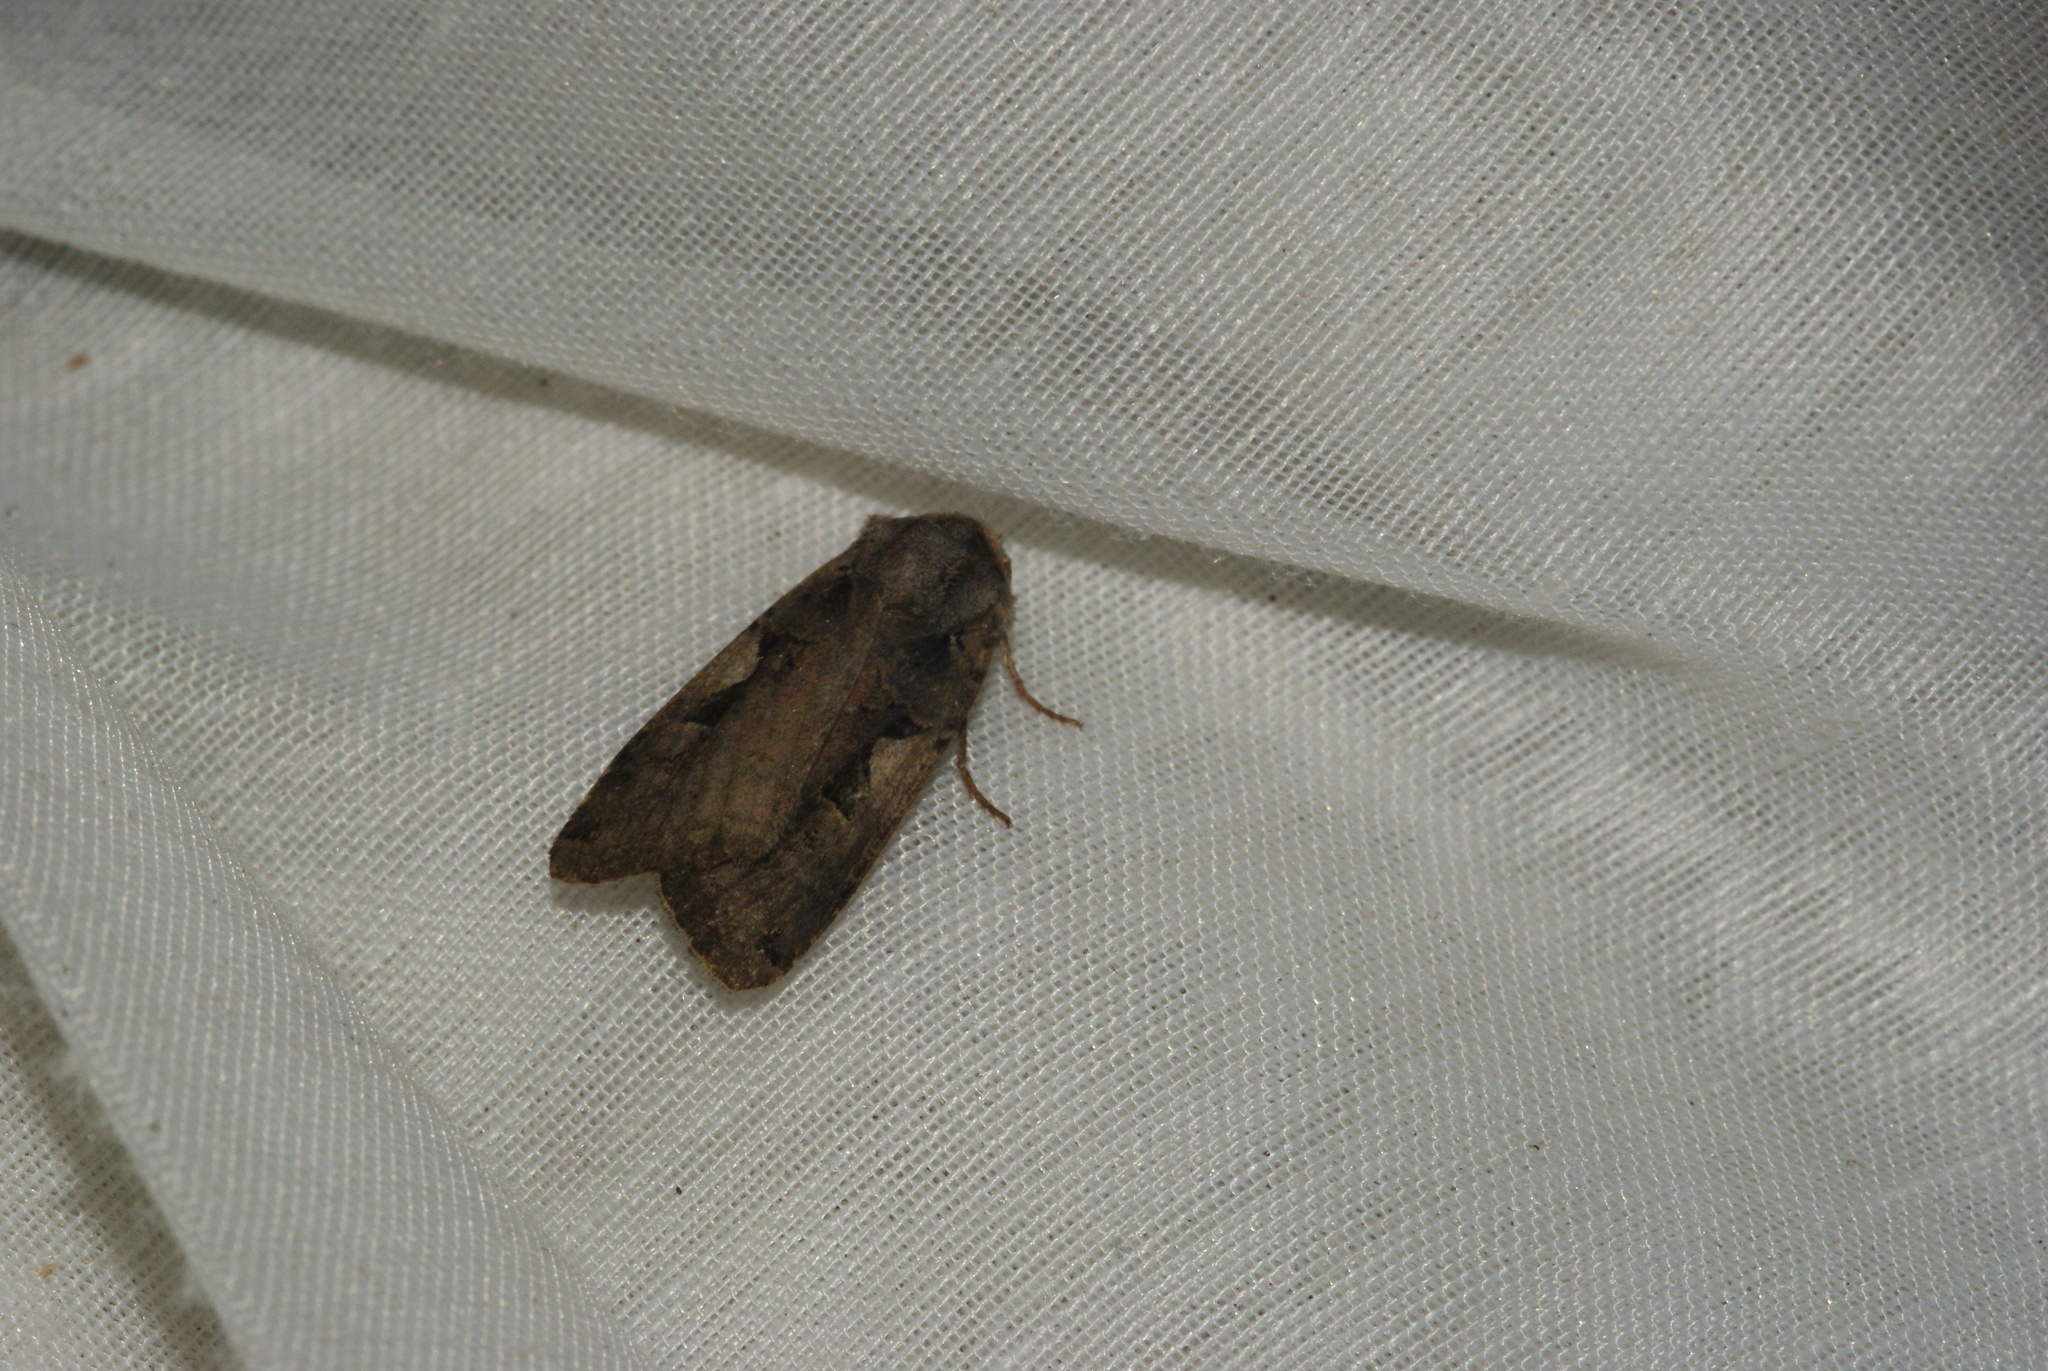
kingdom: Animalia
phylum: Arthropoda
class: Insecta
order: Lepidoptera
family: Noctuidae
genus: Xestia
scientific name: Xestia c-nigrum
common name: Setaceous hebrew character
